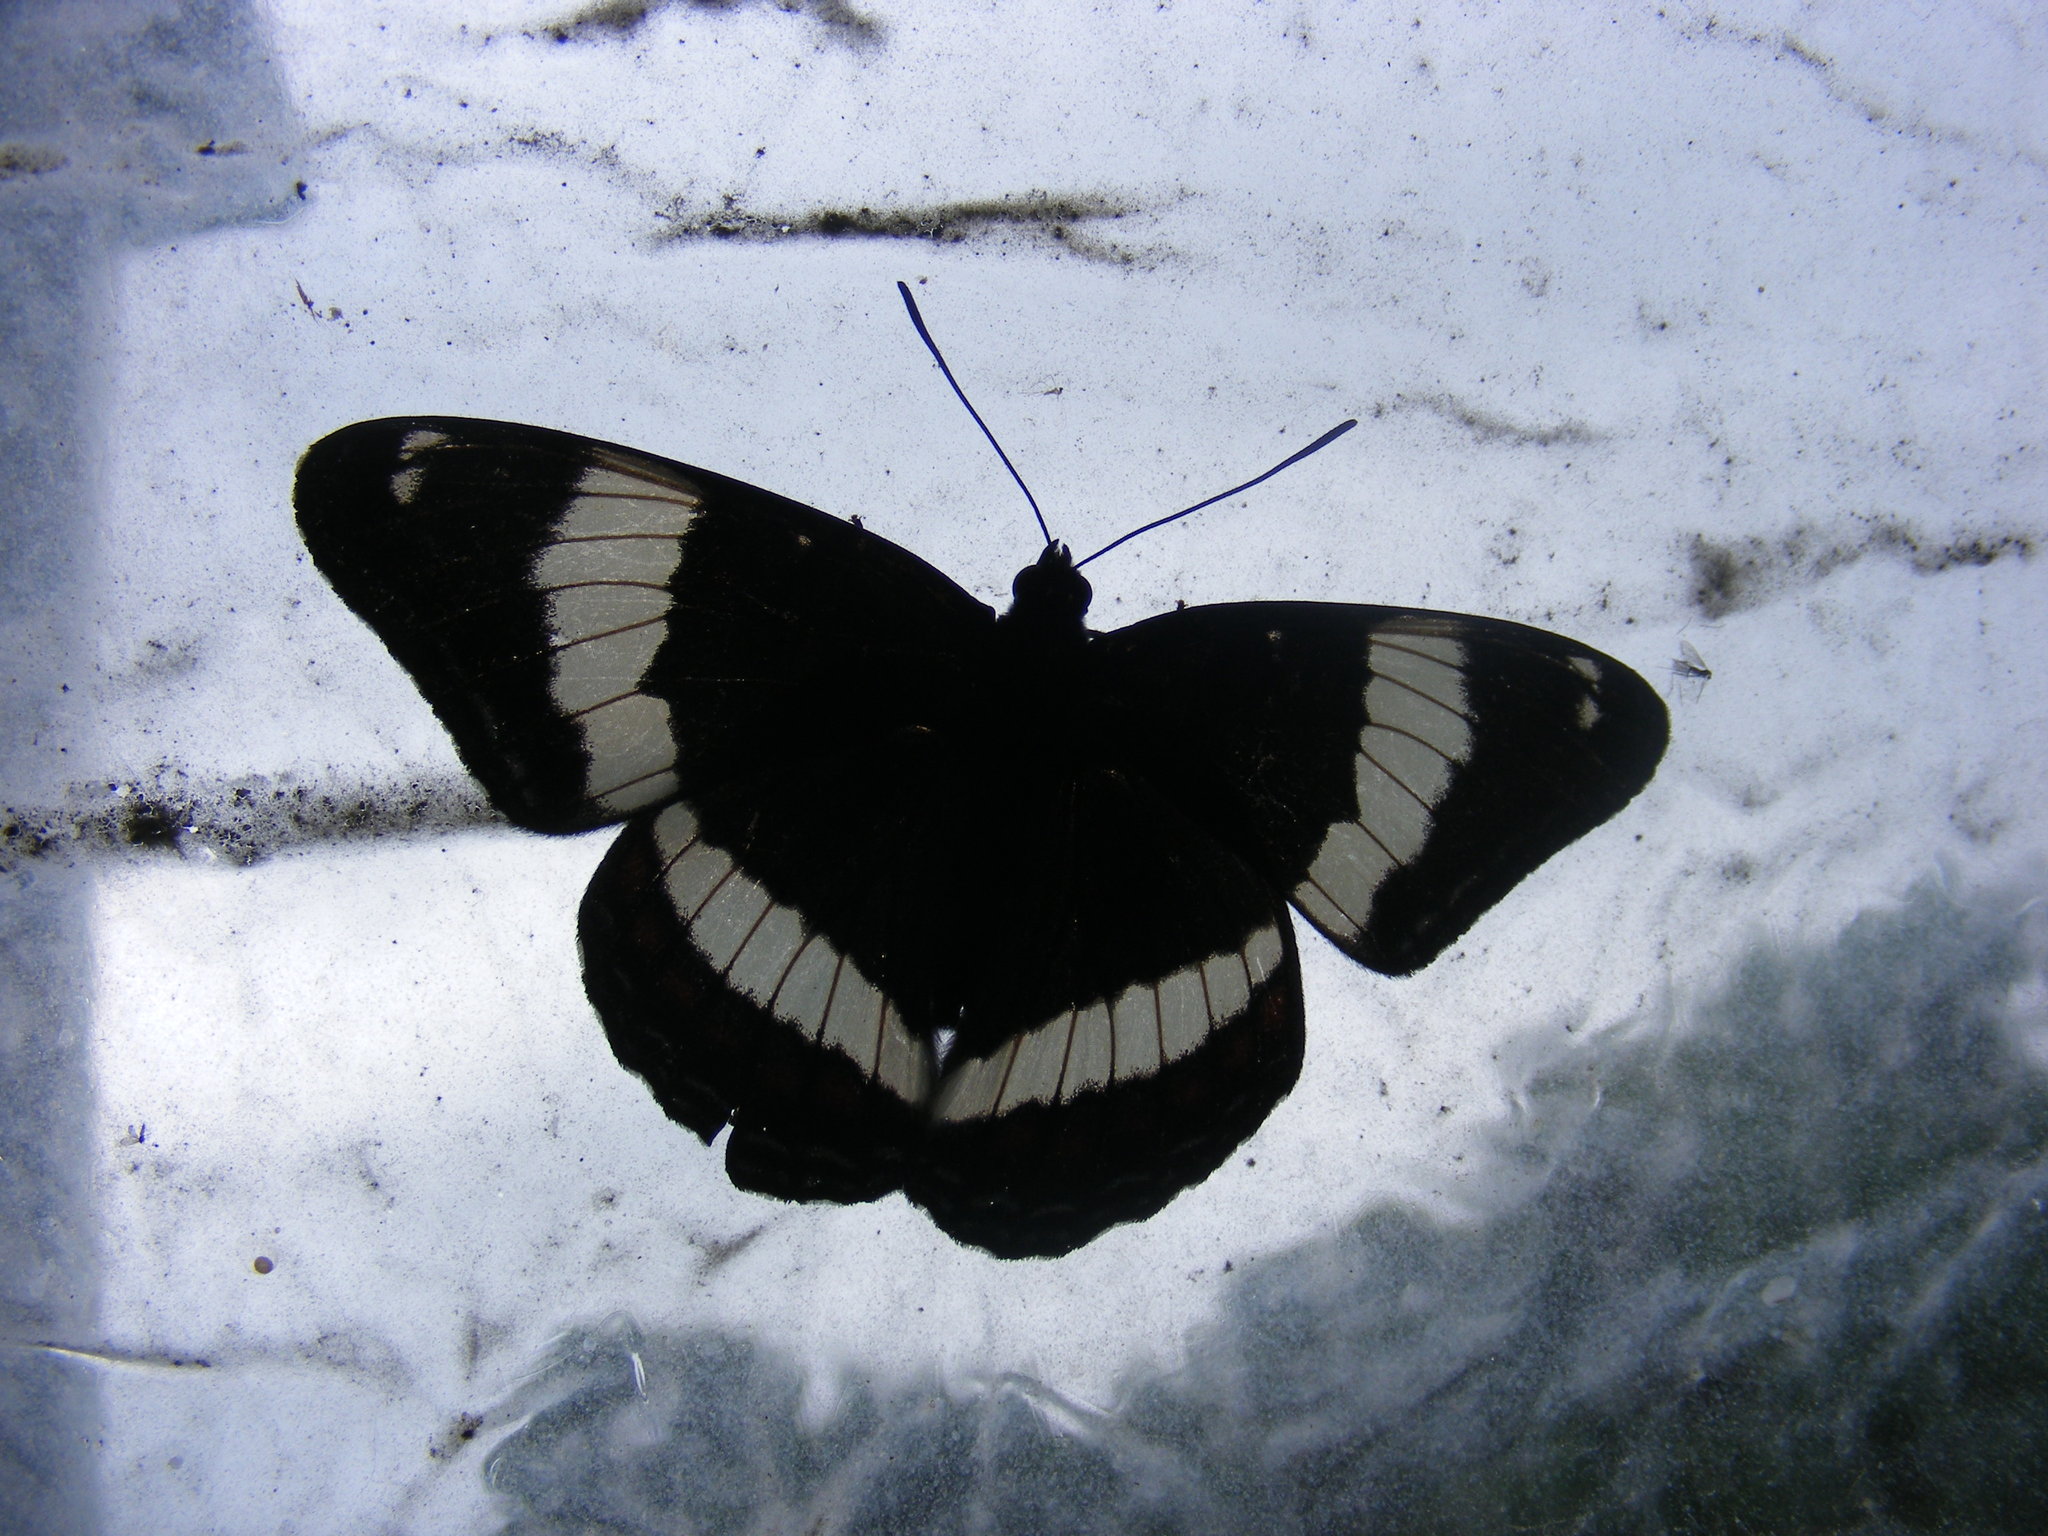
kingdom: Animalia
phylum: Arthropoda
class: Insecta
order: Lepidoptera
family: Nymphalidae
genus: Limenitis
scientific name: Limenitis arthemis
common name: Red-spotted admiral
